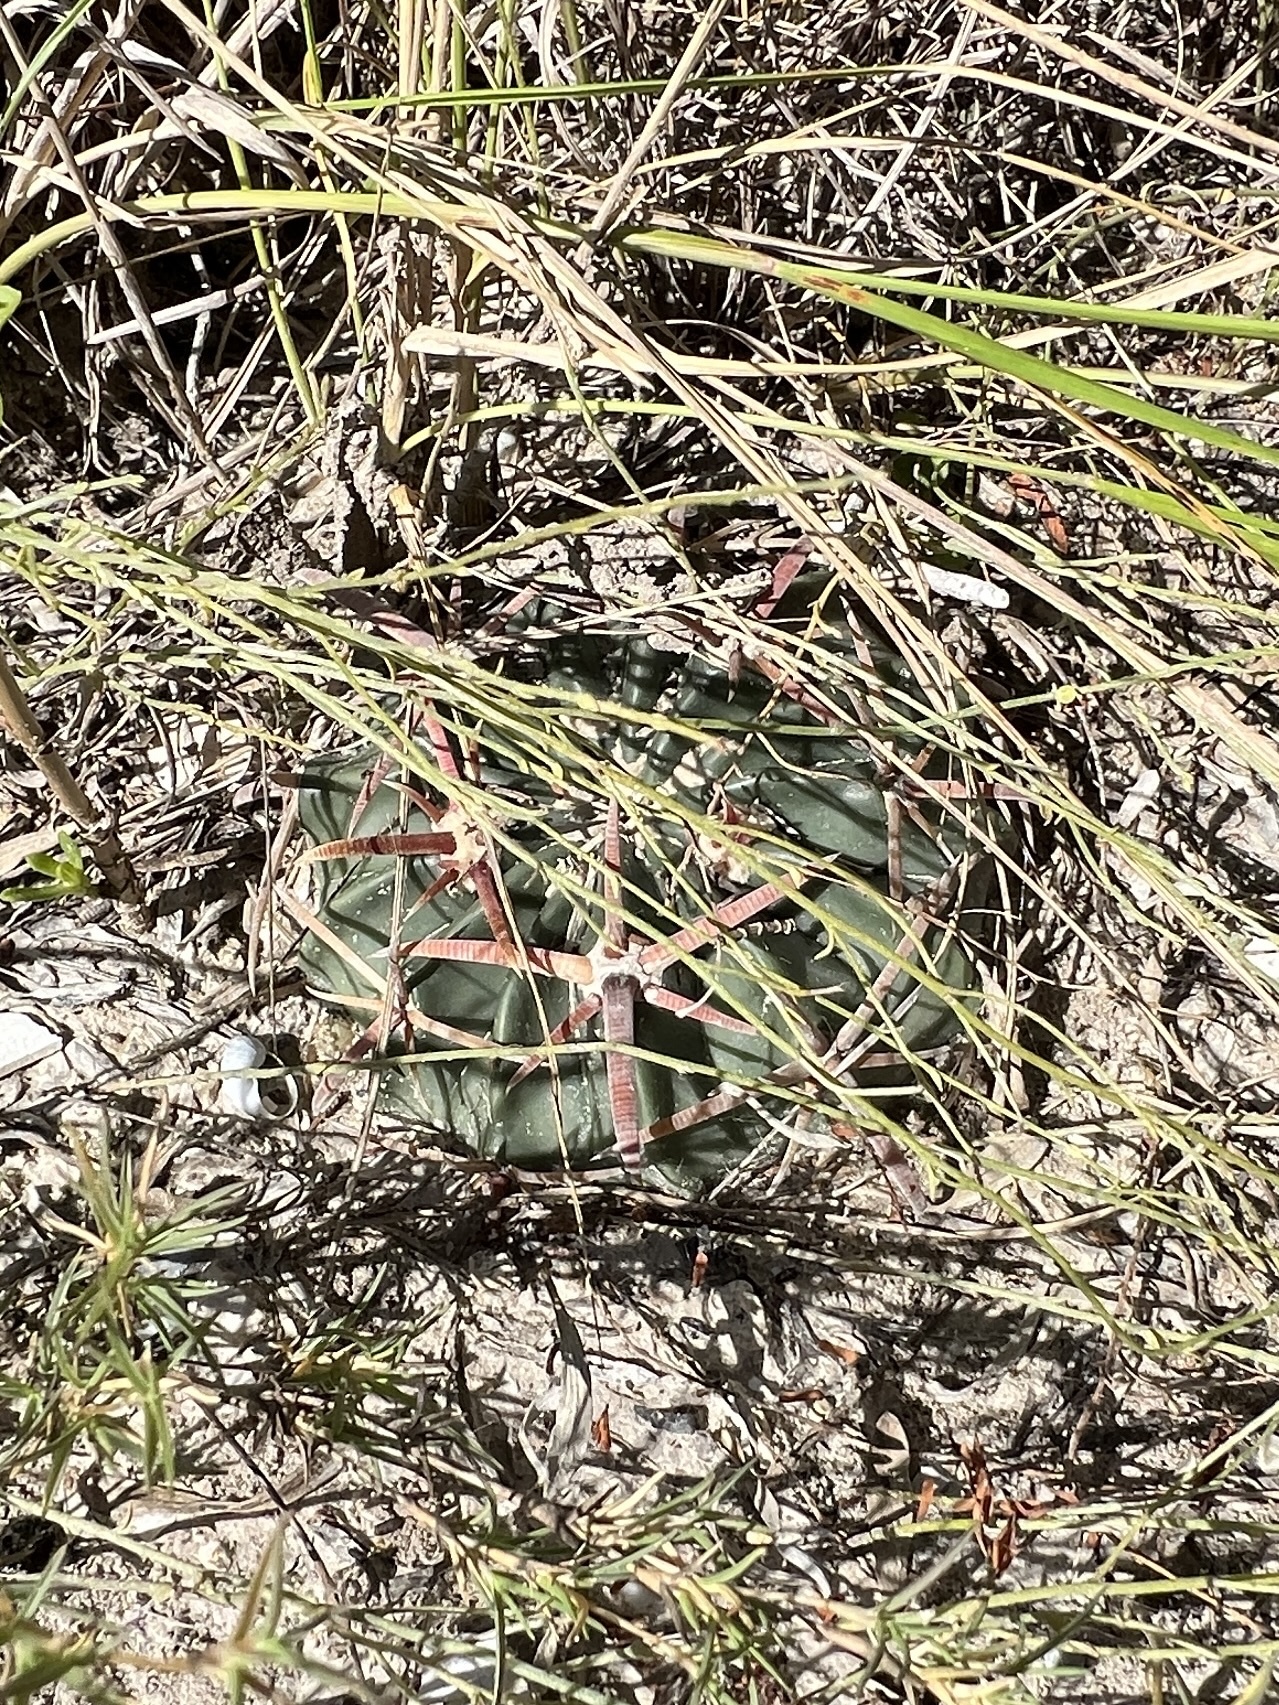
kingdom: Plantae
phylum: Tracheophyta
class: Magnoliopsida
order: Caryophyllales
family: Cactaceae
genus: Echinocactus
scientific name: Echinocactus texensis
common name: Devil's pincushion
